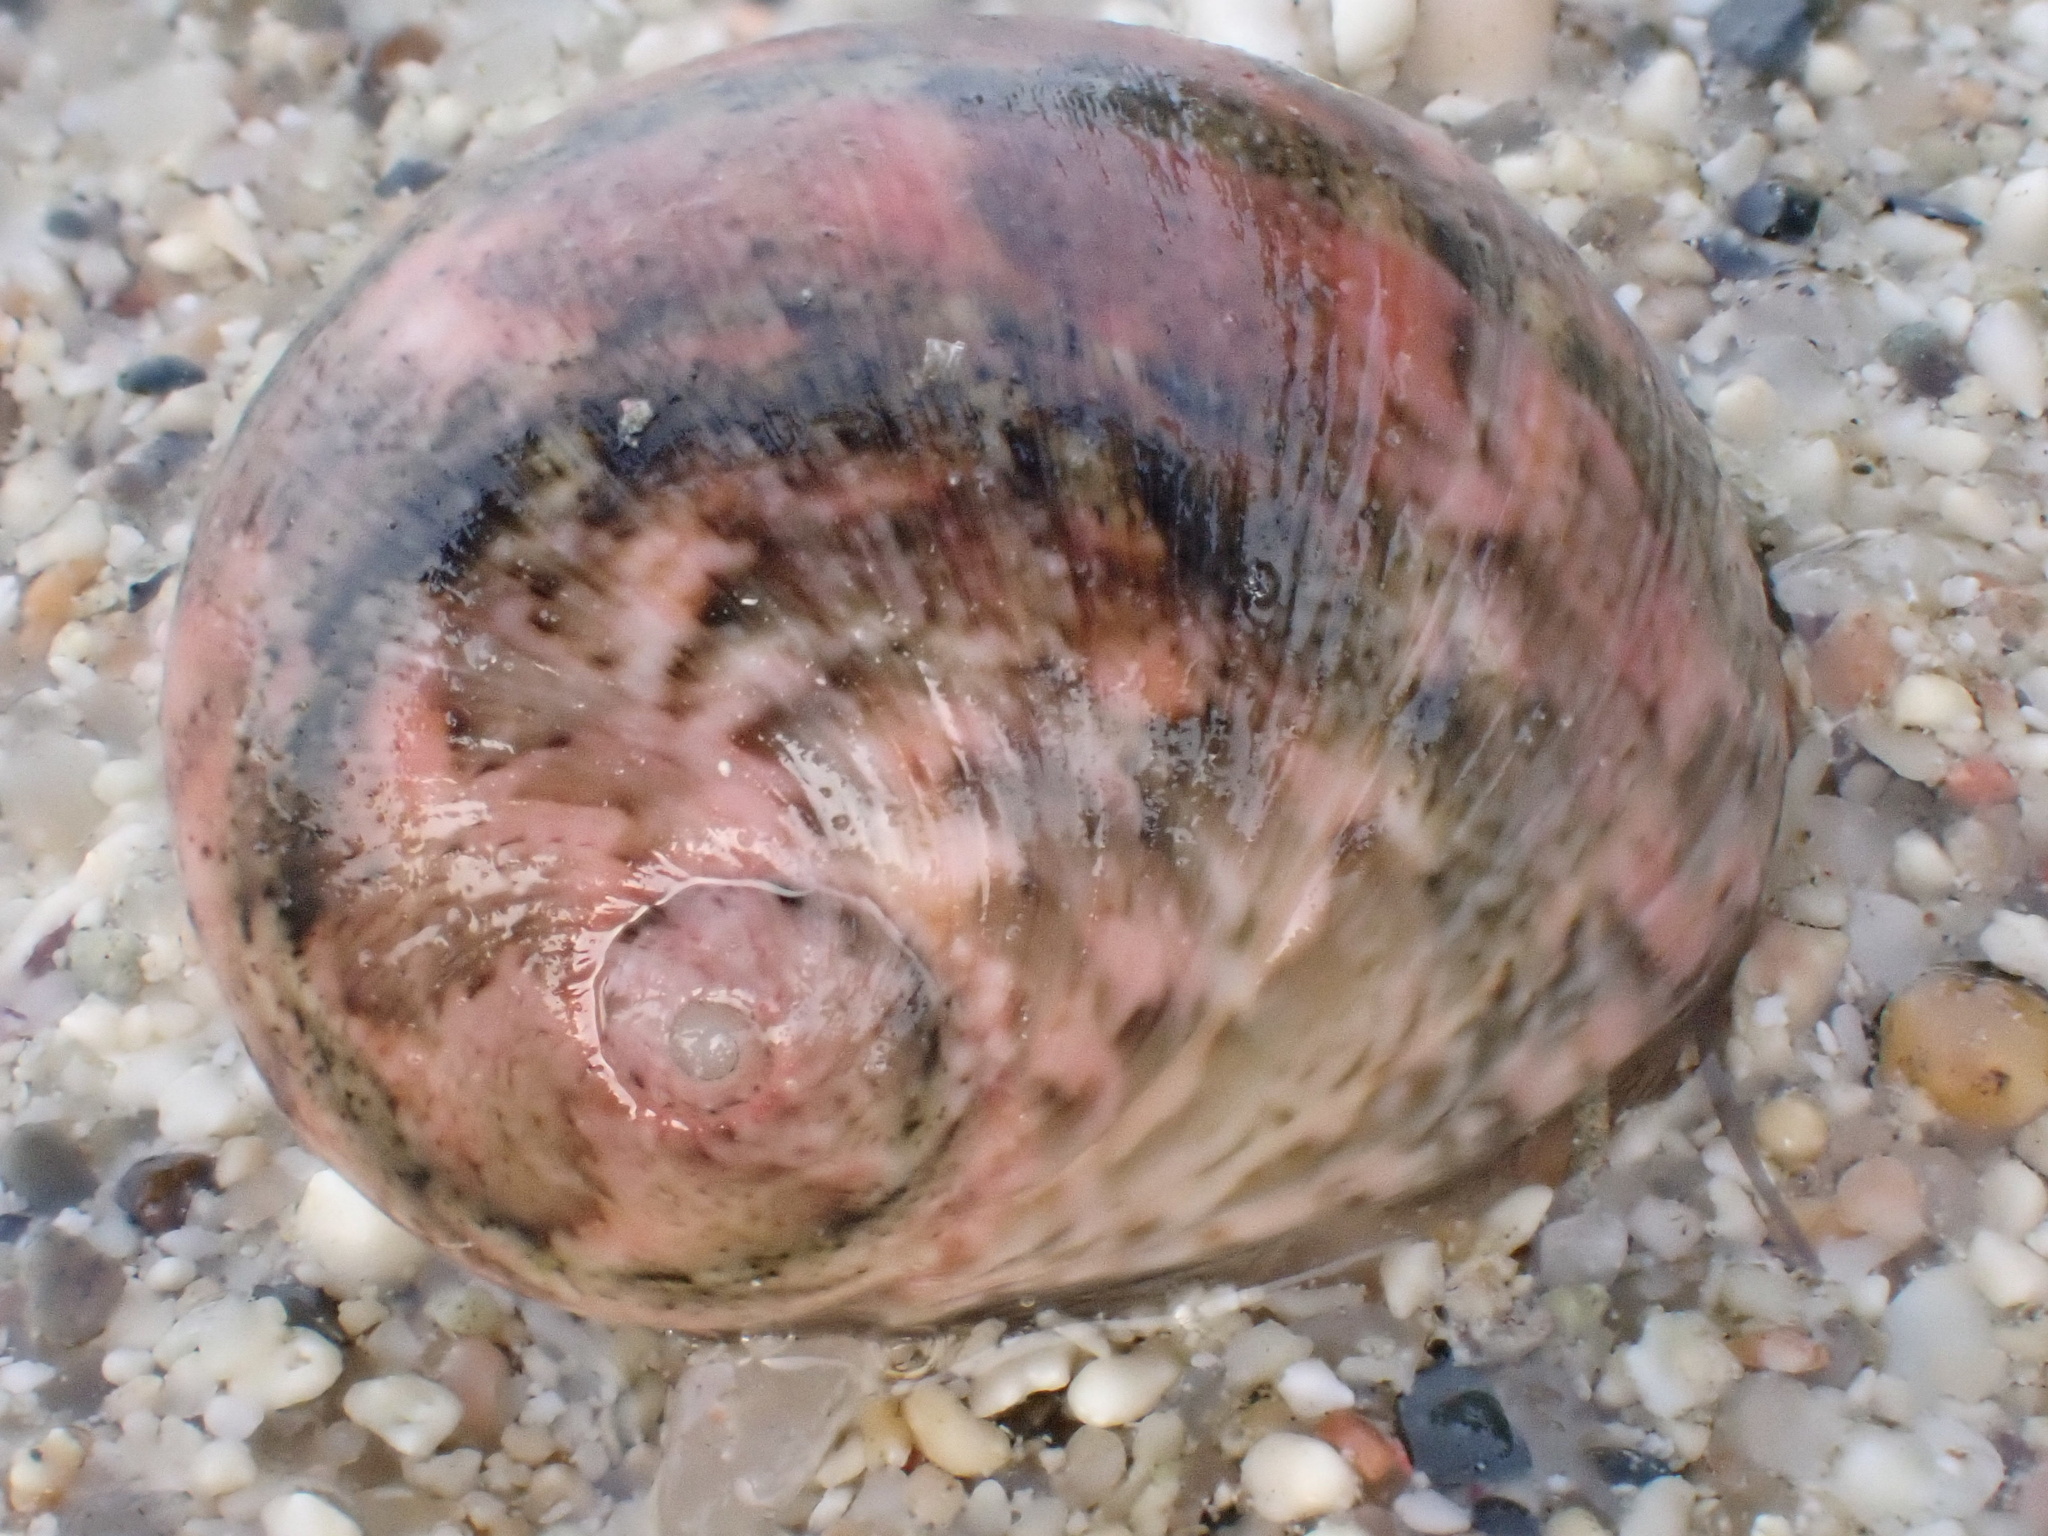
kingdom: Animalia
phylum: Mollusca
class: Gastropoda
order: Cycloneritida
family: Neritidae
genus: Nerita
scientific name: Nerita orbignyana
